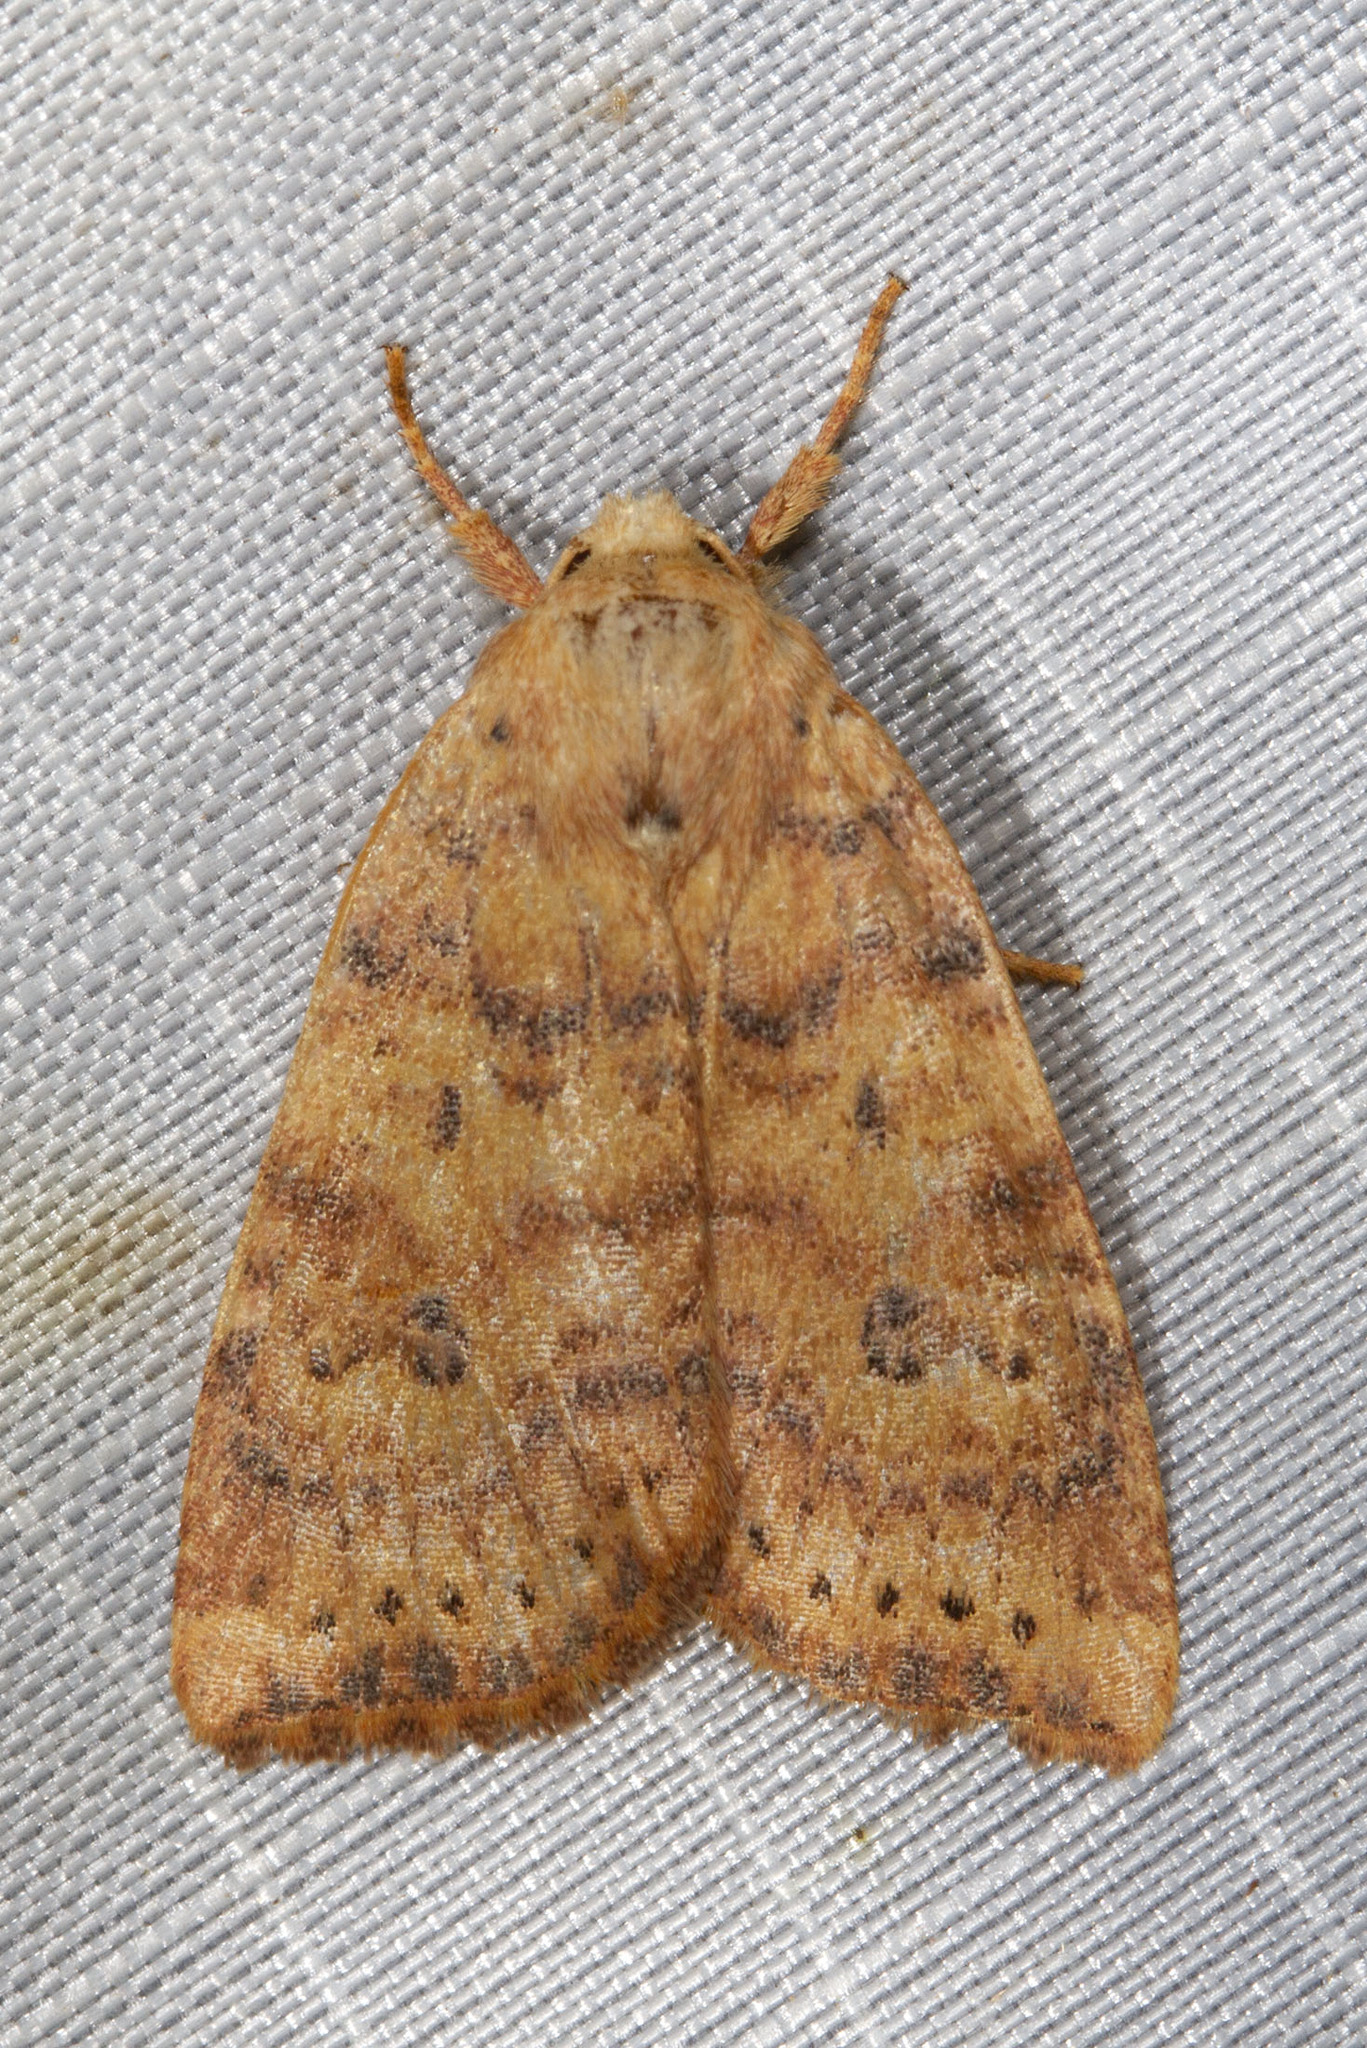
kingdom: Animalia
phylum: Arthropoda
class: Insecta
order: Lepidoptera
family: Noctuidae
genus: Anathix
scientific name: Anathix ralla
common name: Dotted sallow
